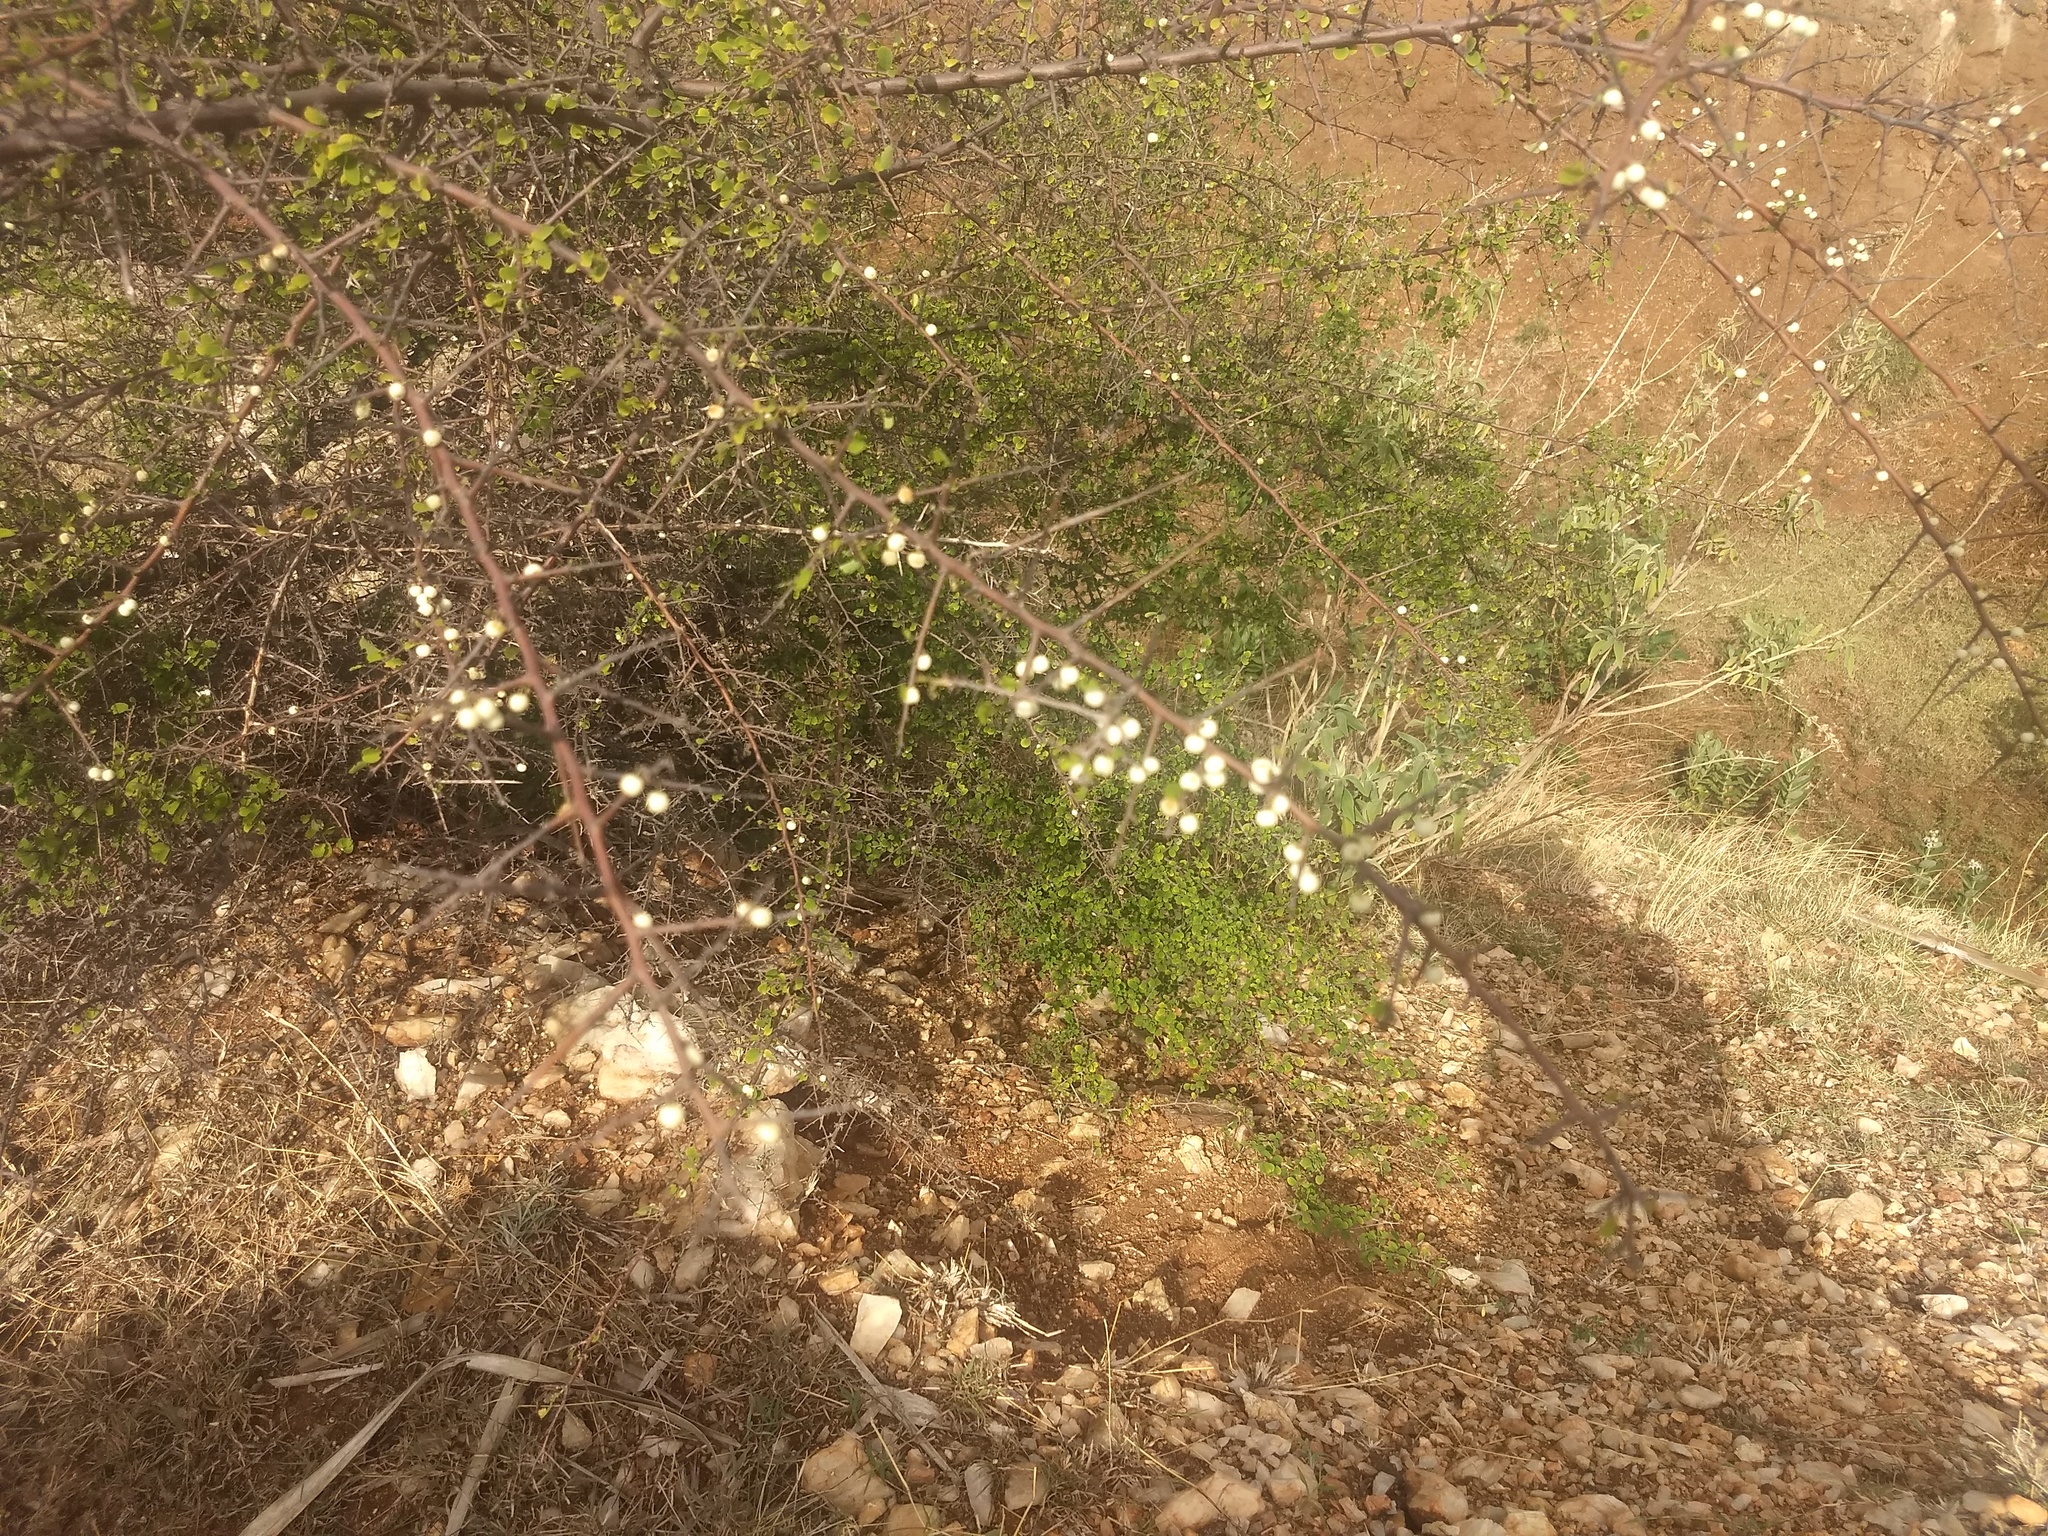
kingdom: Plantae
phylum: Tracheophyta
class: Magnoliopsida
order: Malpighiales
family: Phyllanthaceae
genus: Flueggea
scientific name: Flueggea leucopyrus
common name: Bushweed
